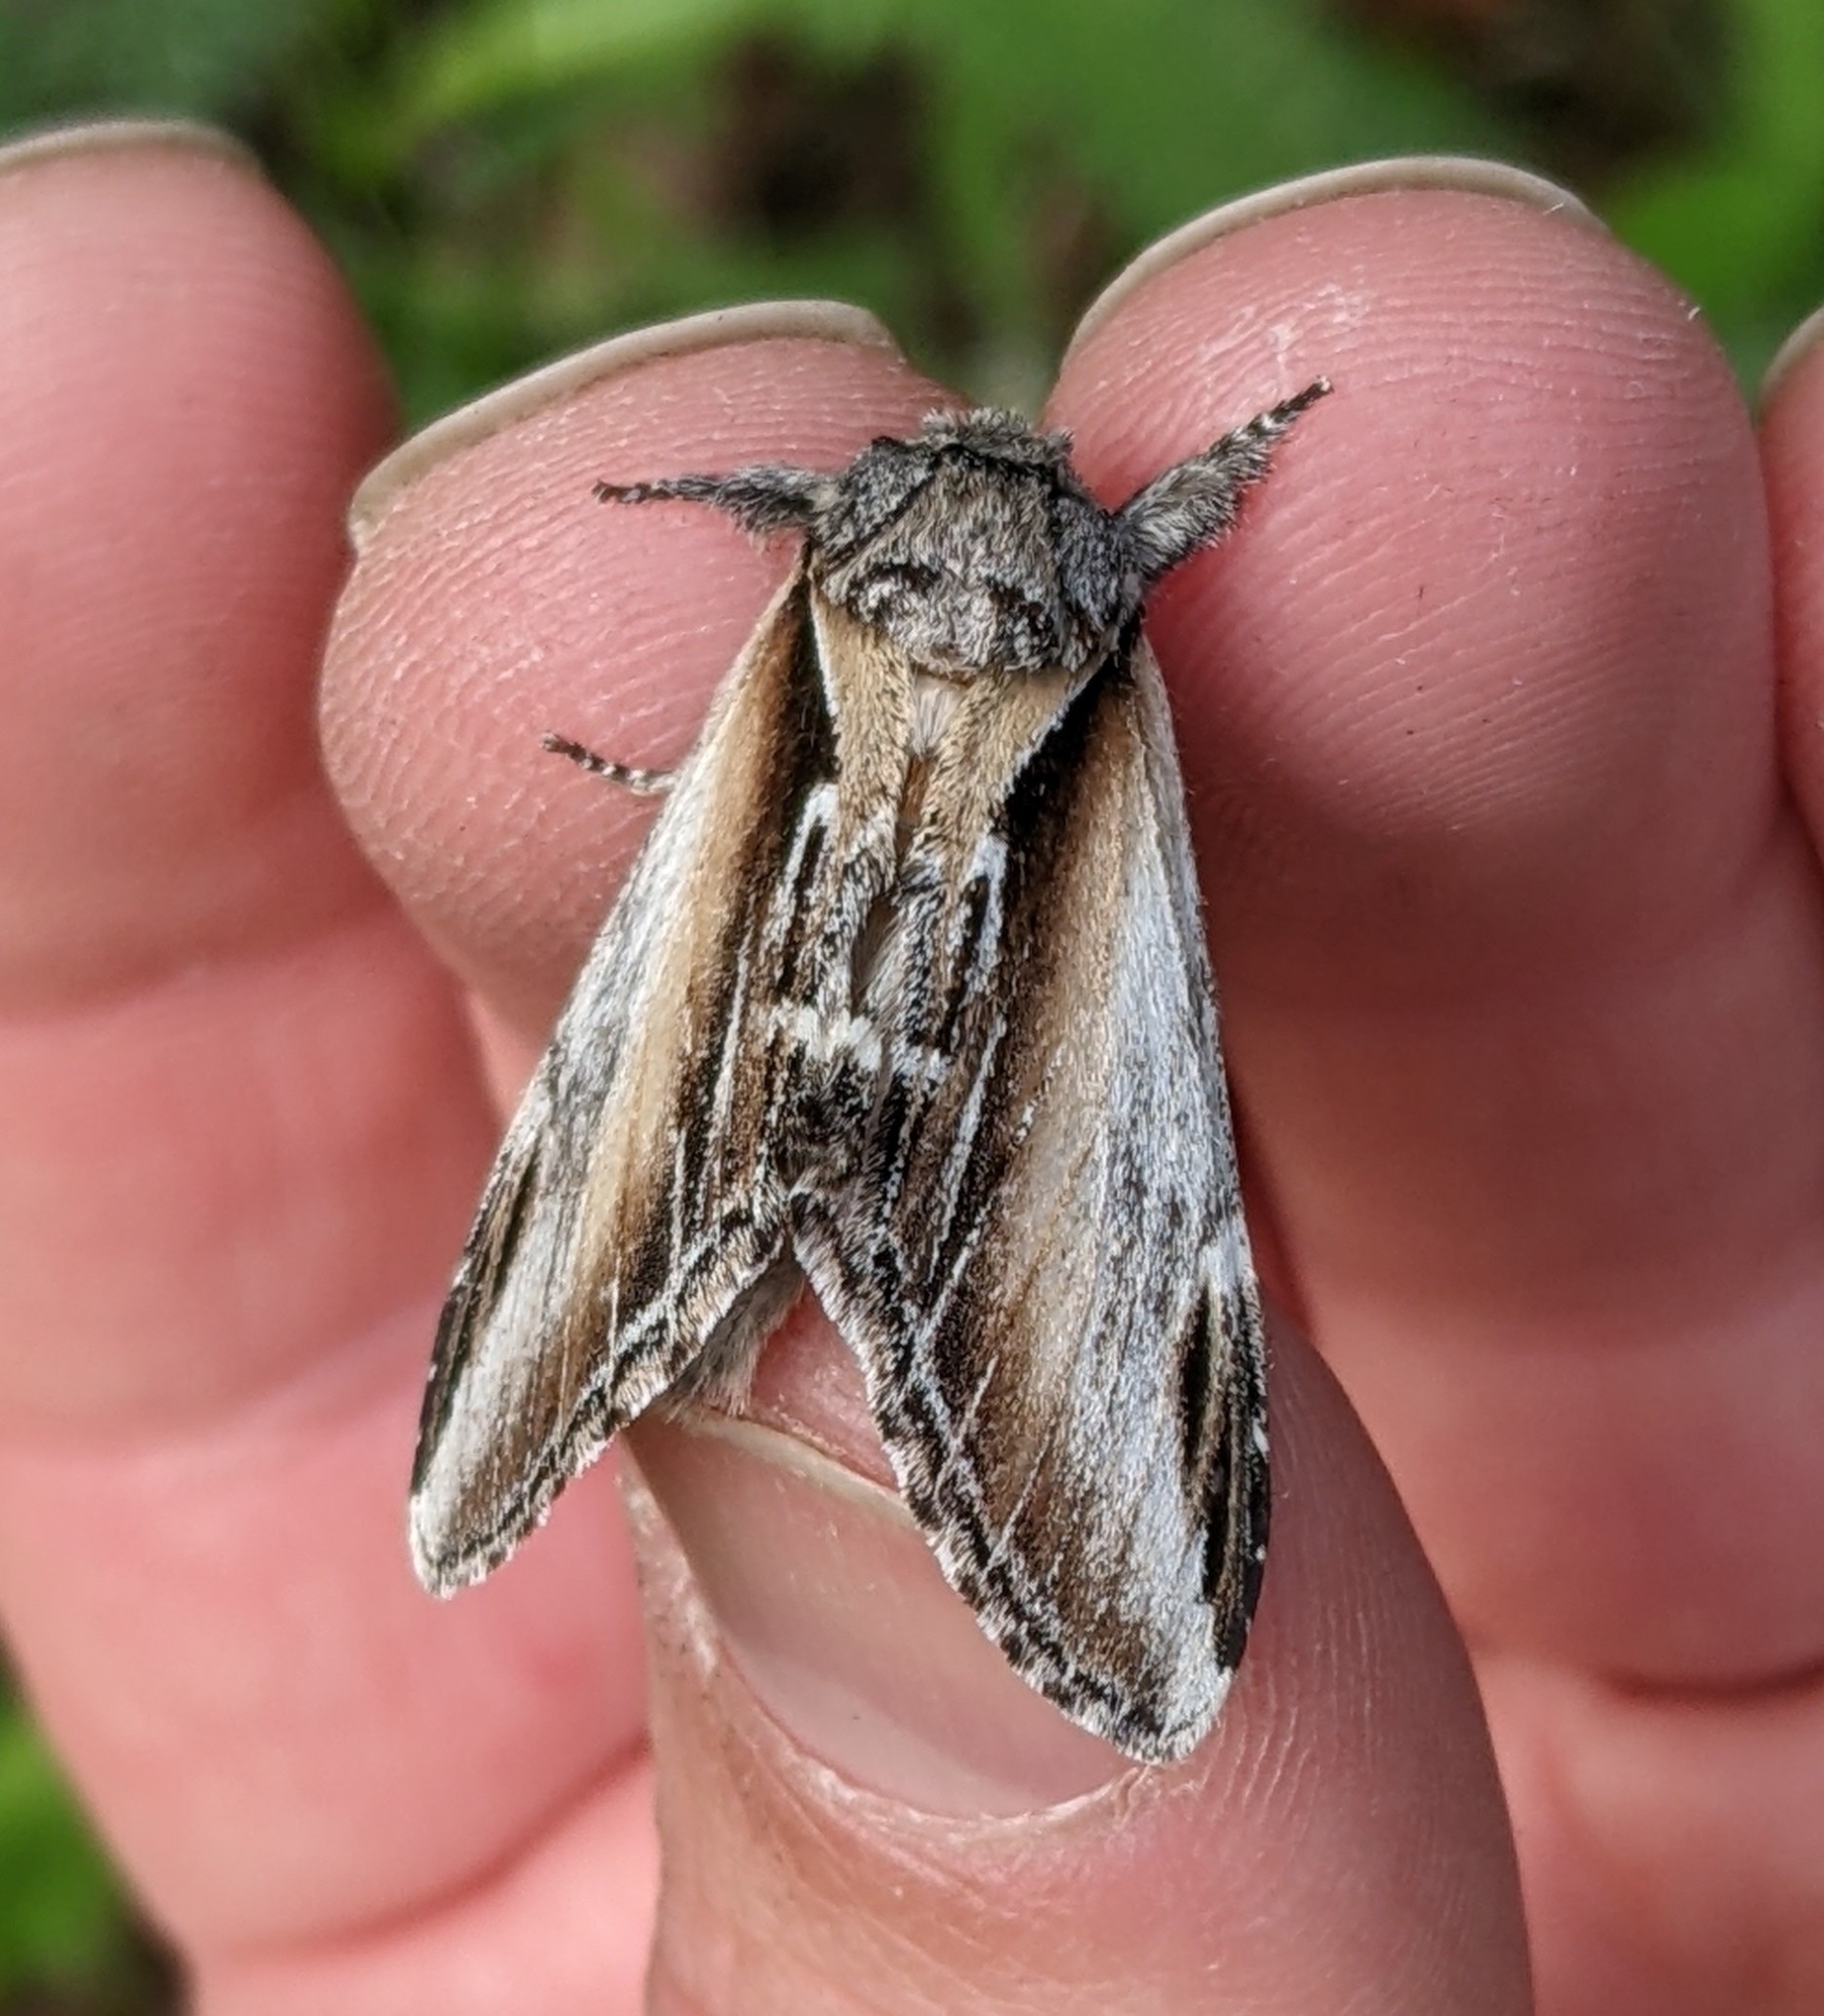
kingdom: Animalia
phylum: Arthropoda
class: Insecta
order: Lepidoptera
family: Notodontidae
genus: Pheosia
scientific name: Pheosia rimosa
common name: Black-rimmed prominent
